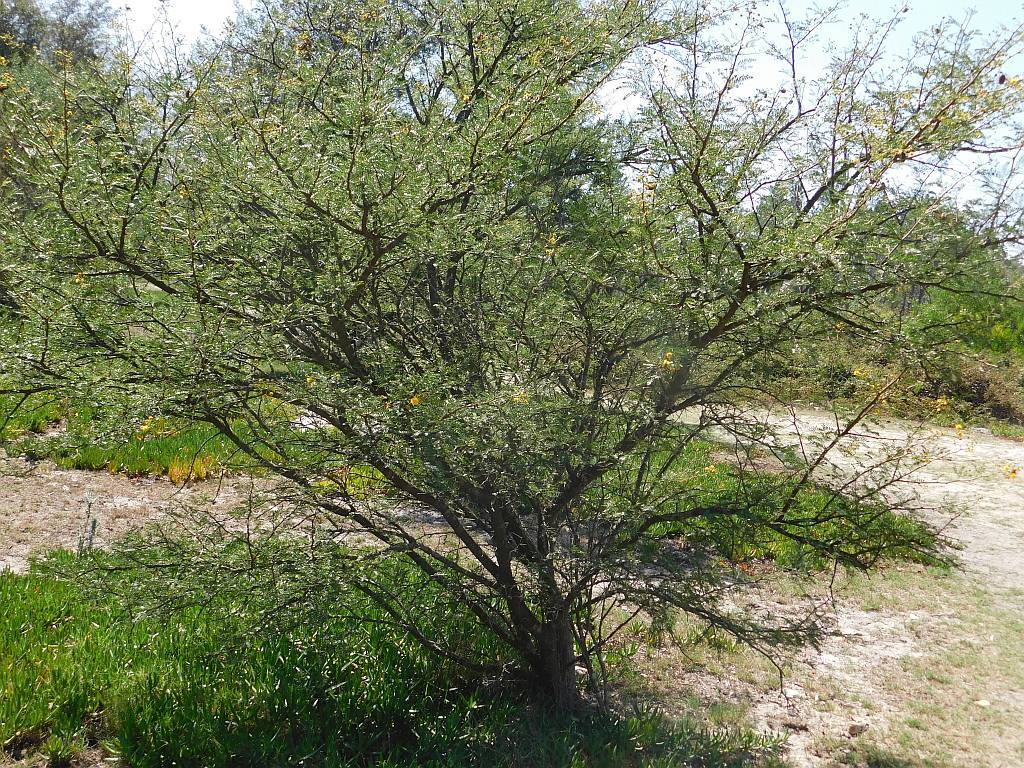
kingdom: Plantae
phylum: Tracheophyta
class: Magnoliopsida
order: Fabales
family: Fabaceae
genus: Vachellia
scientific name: Vachellia karroo
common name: Sweet thorn
